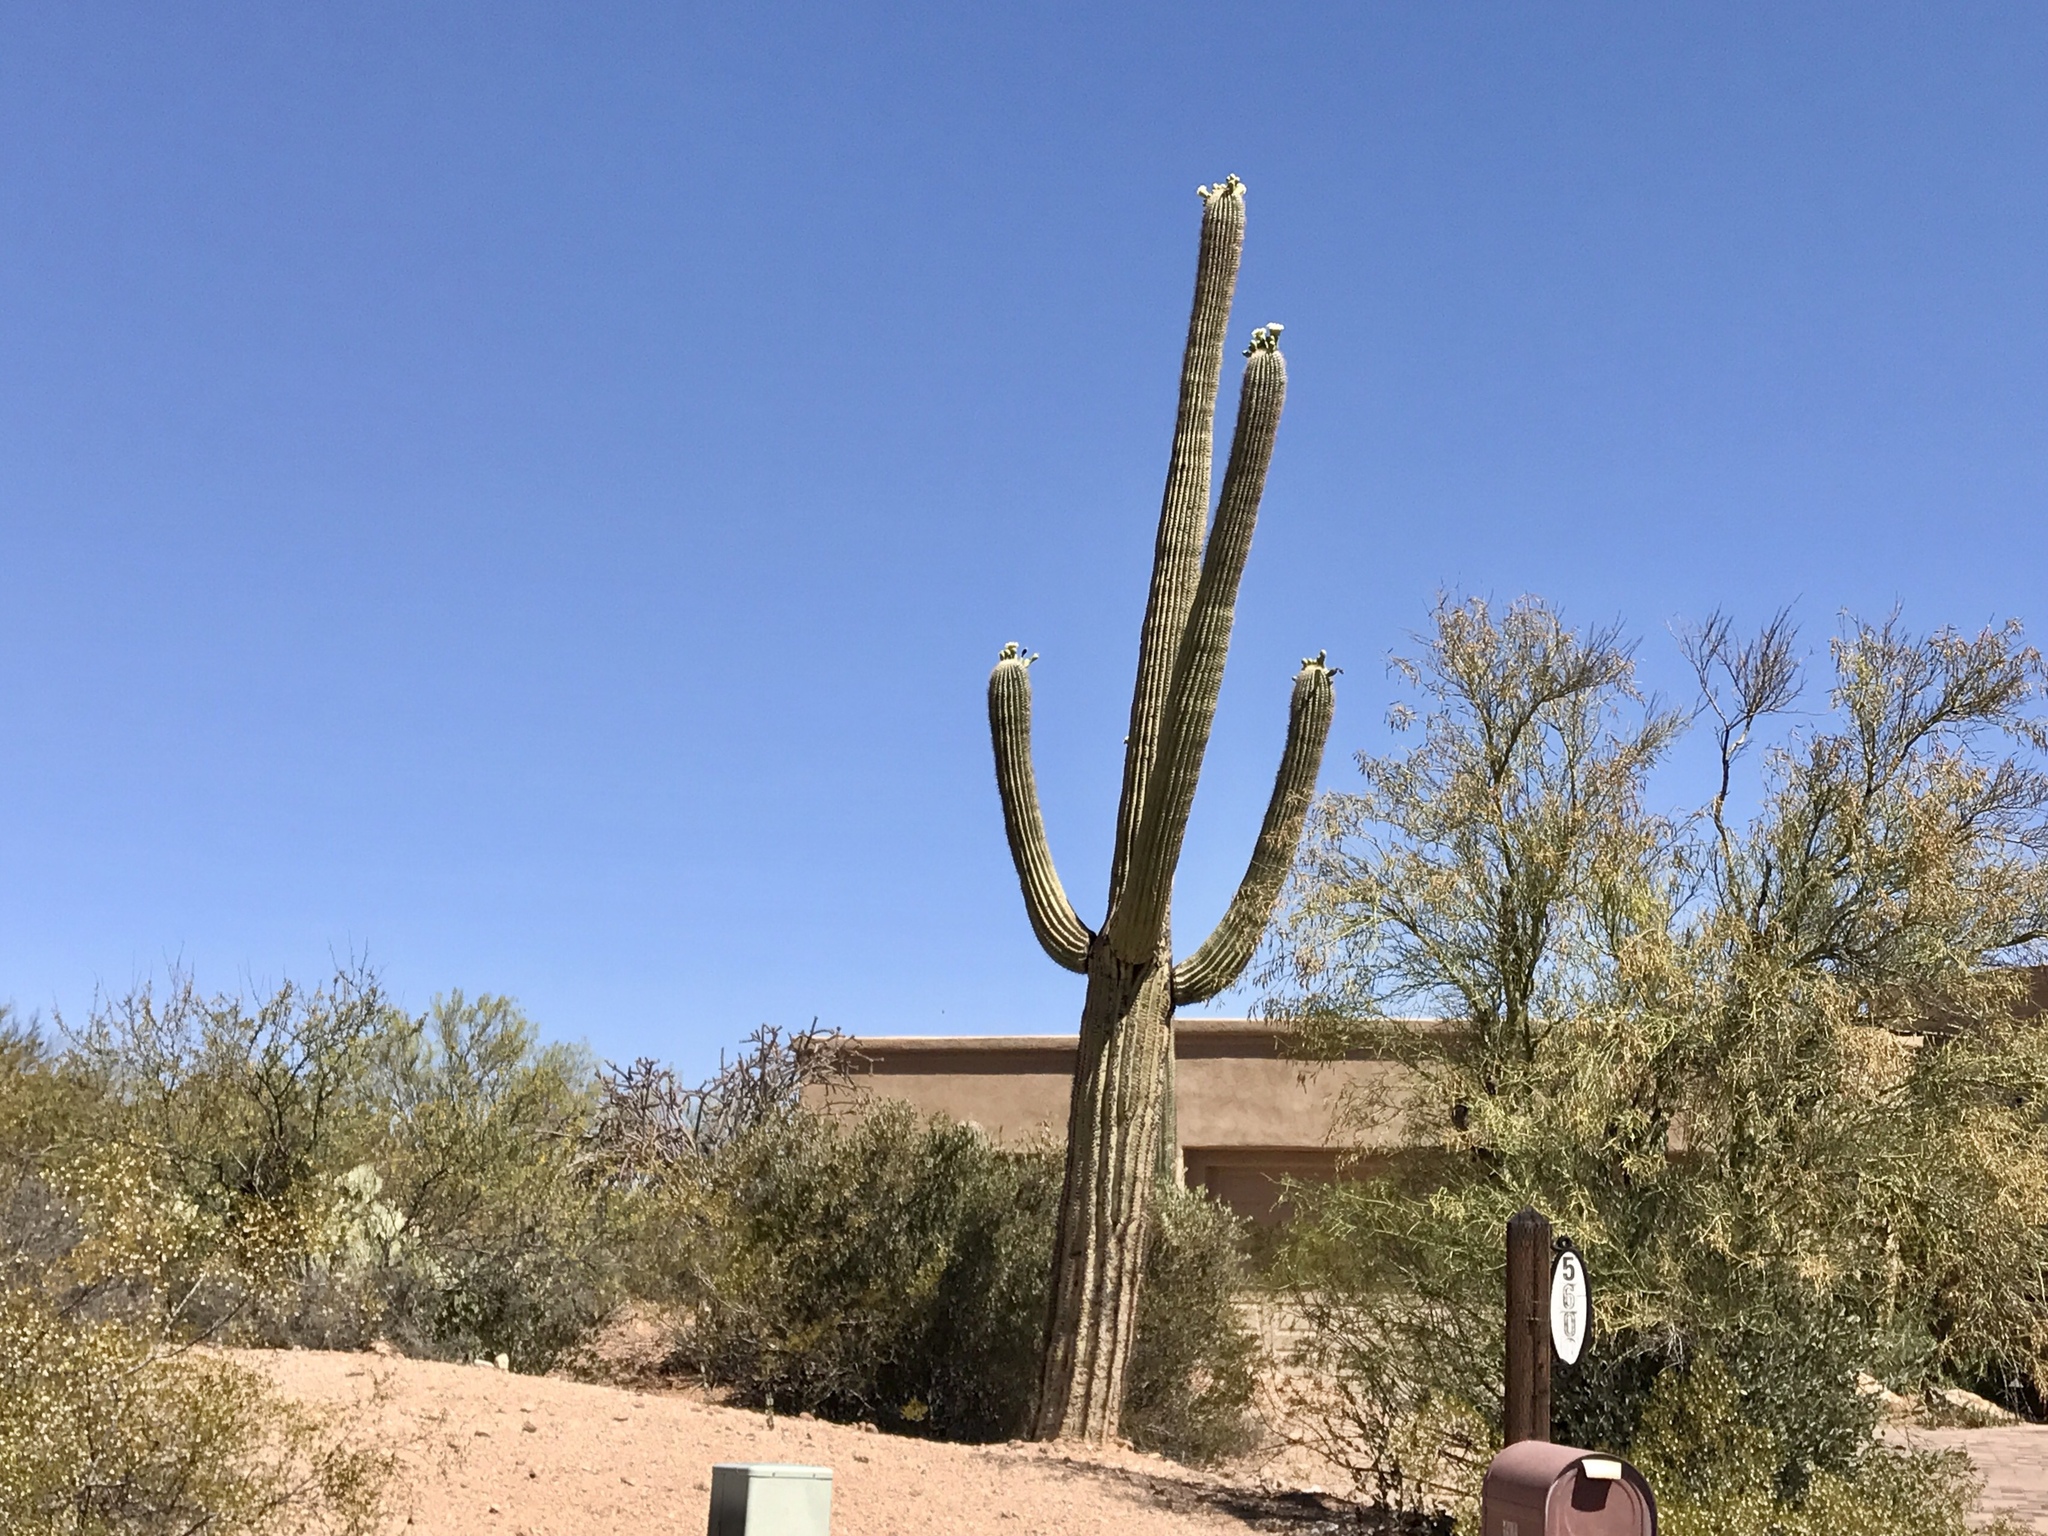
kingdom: Plantae
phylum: Tracheophyta
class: Magnoliopsida
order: Caryophyllales
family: Cactaceae
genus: Carnegiea
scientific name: Carnegiea gigantea
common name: Saguaro
